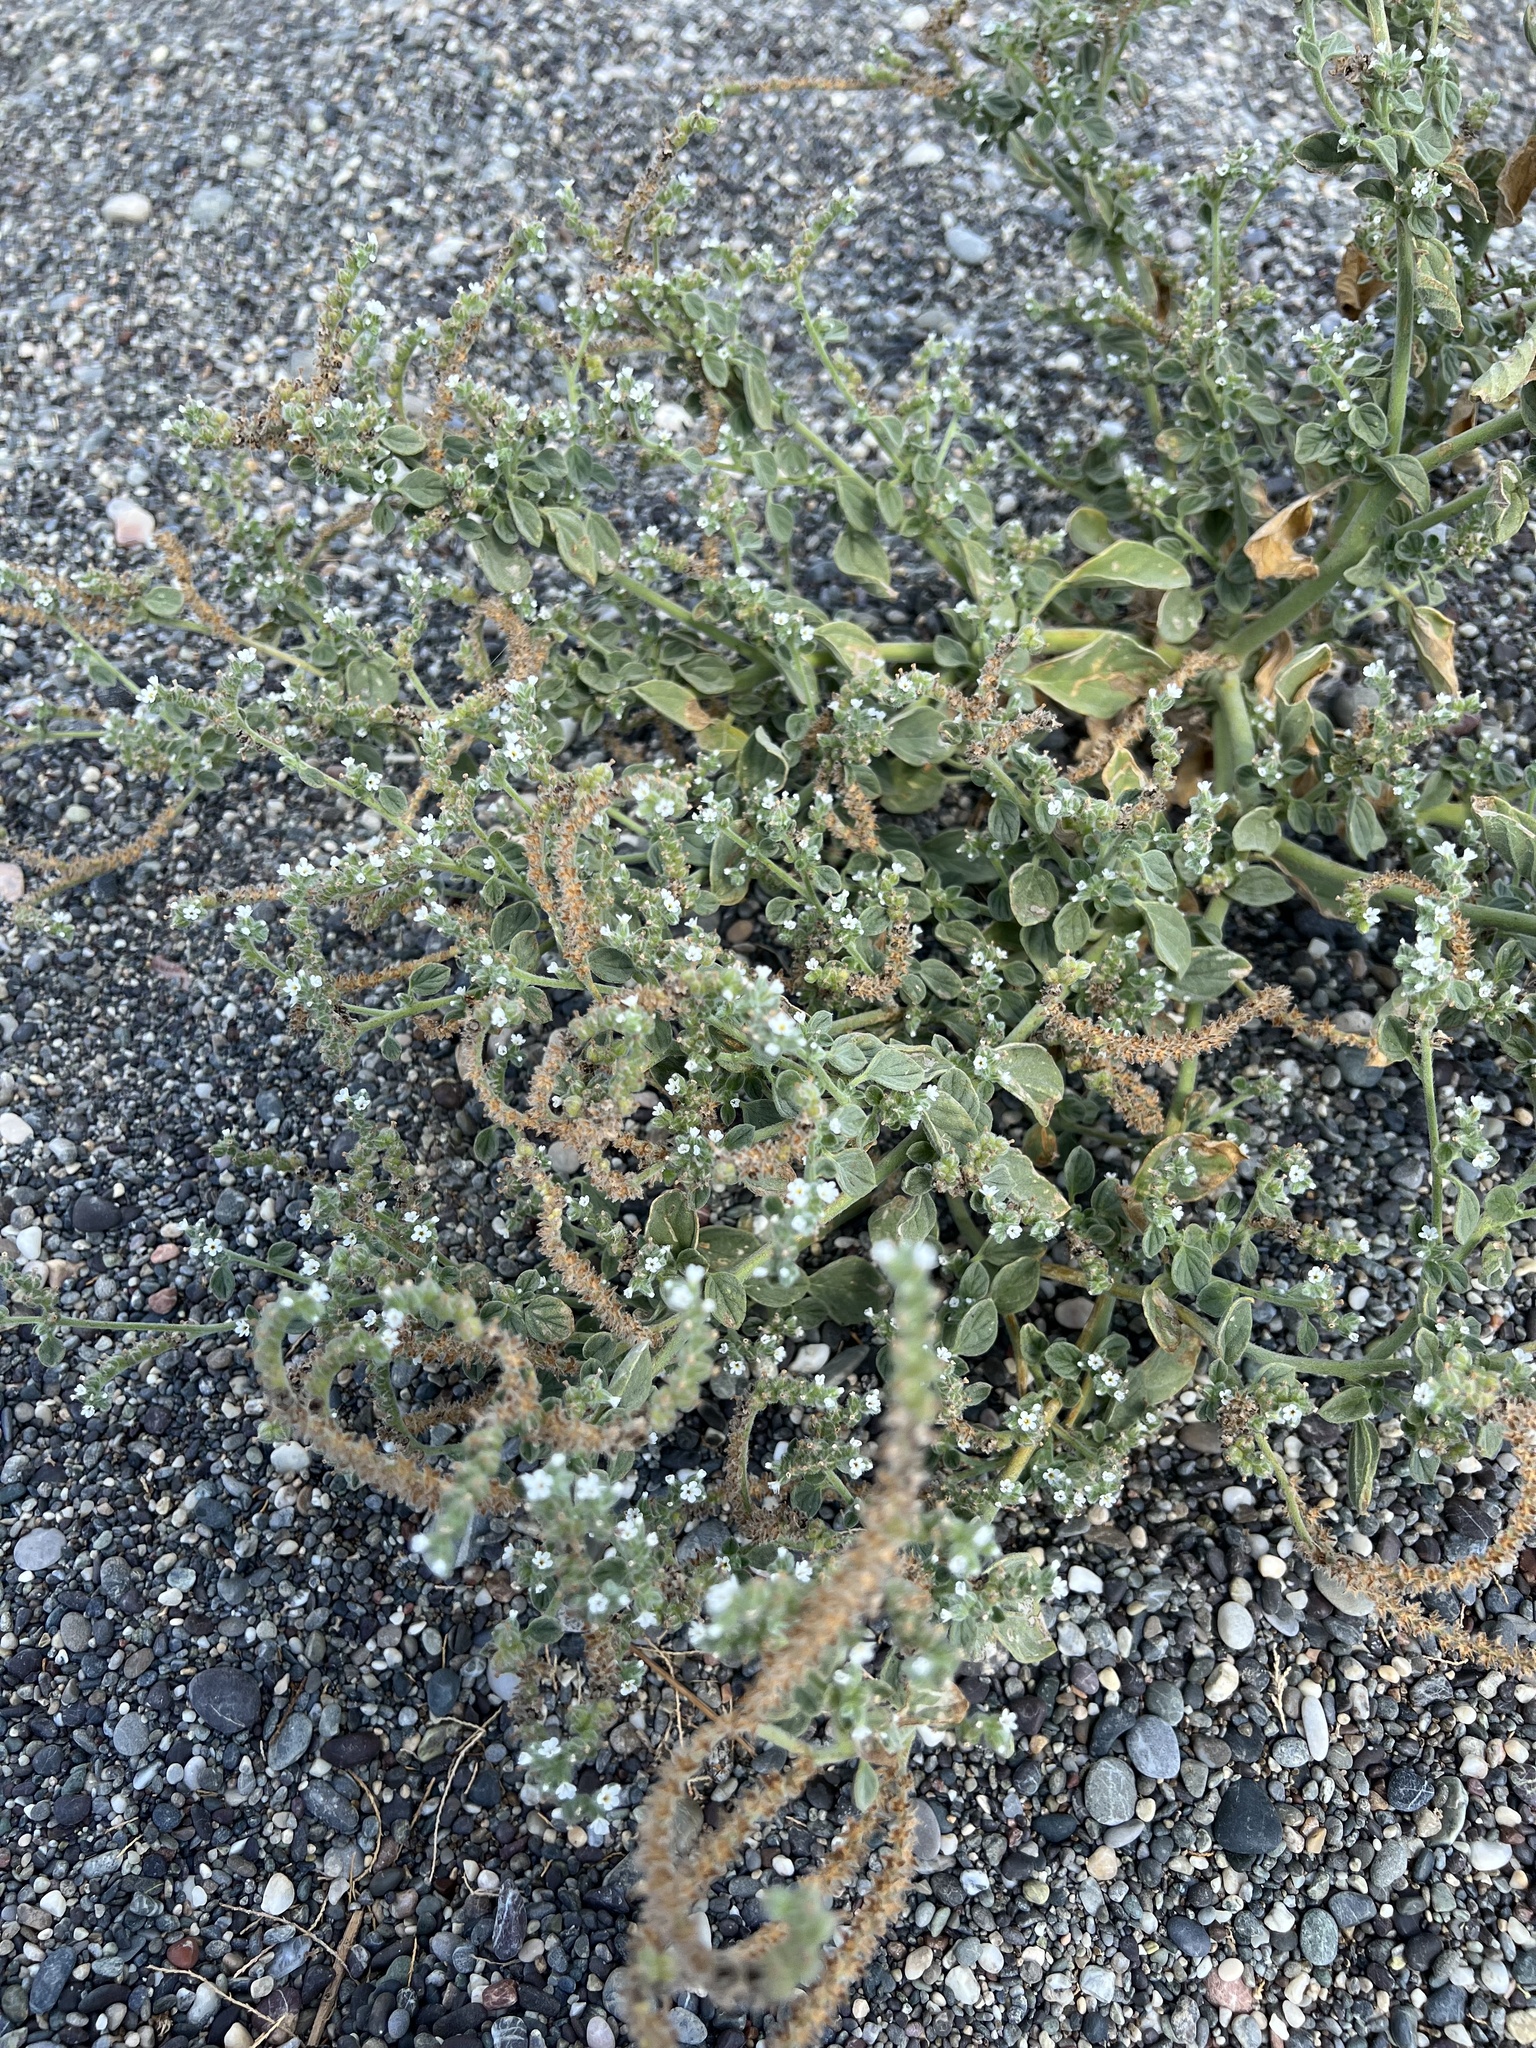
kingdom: Plantae
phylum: Tracheophyta
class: Magnoliopsida
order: Boraginales
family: Heliotropiaceae
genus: Heliotropium
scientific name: Heliotropium europaeum
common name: European heliotrope
